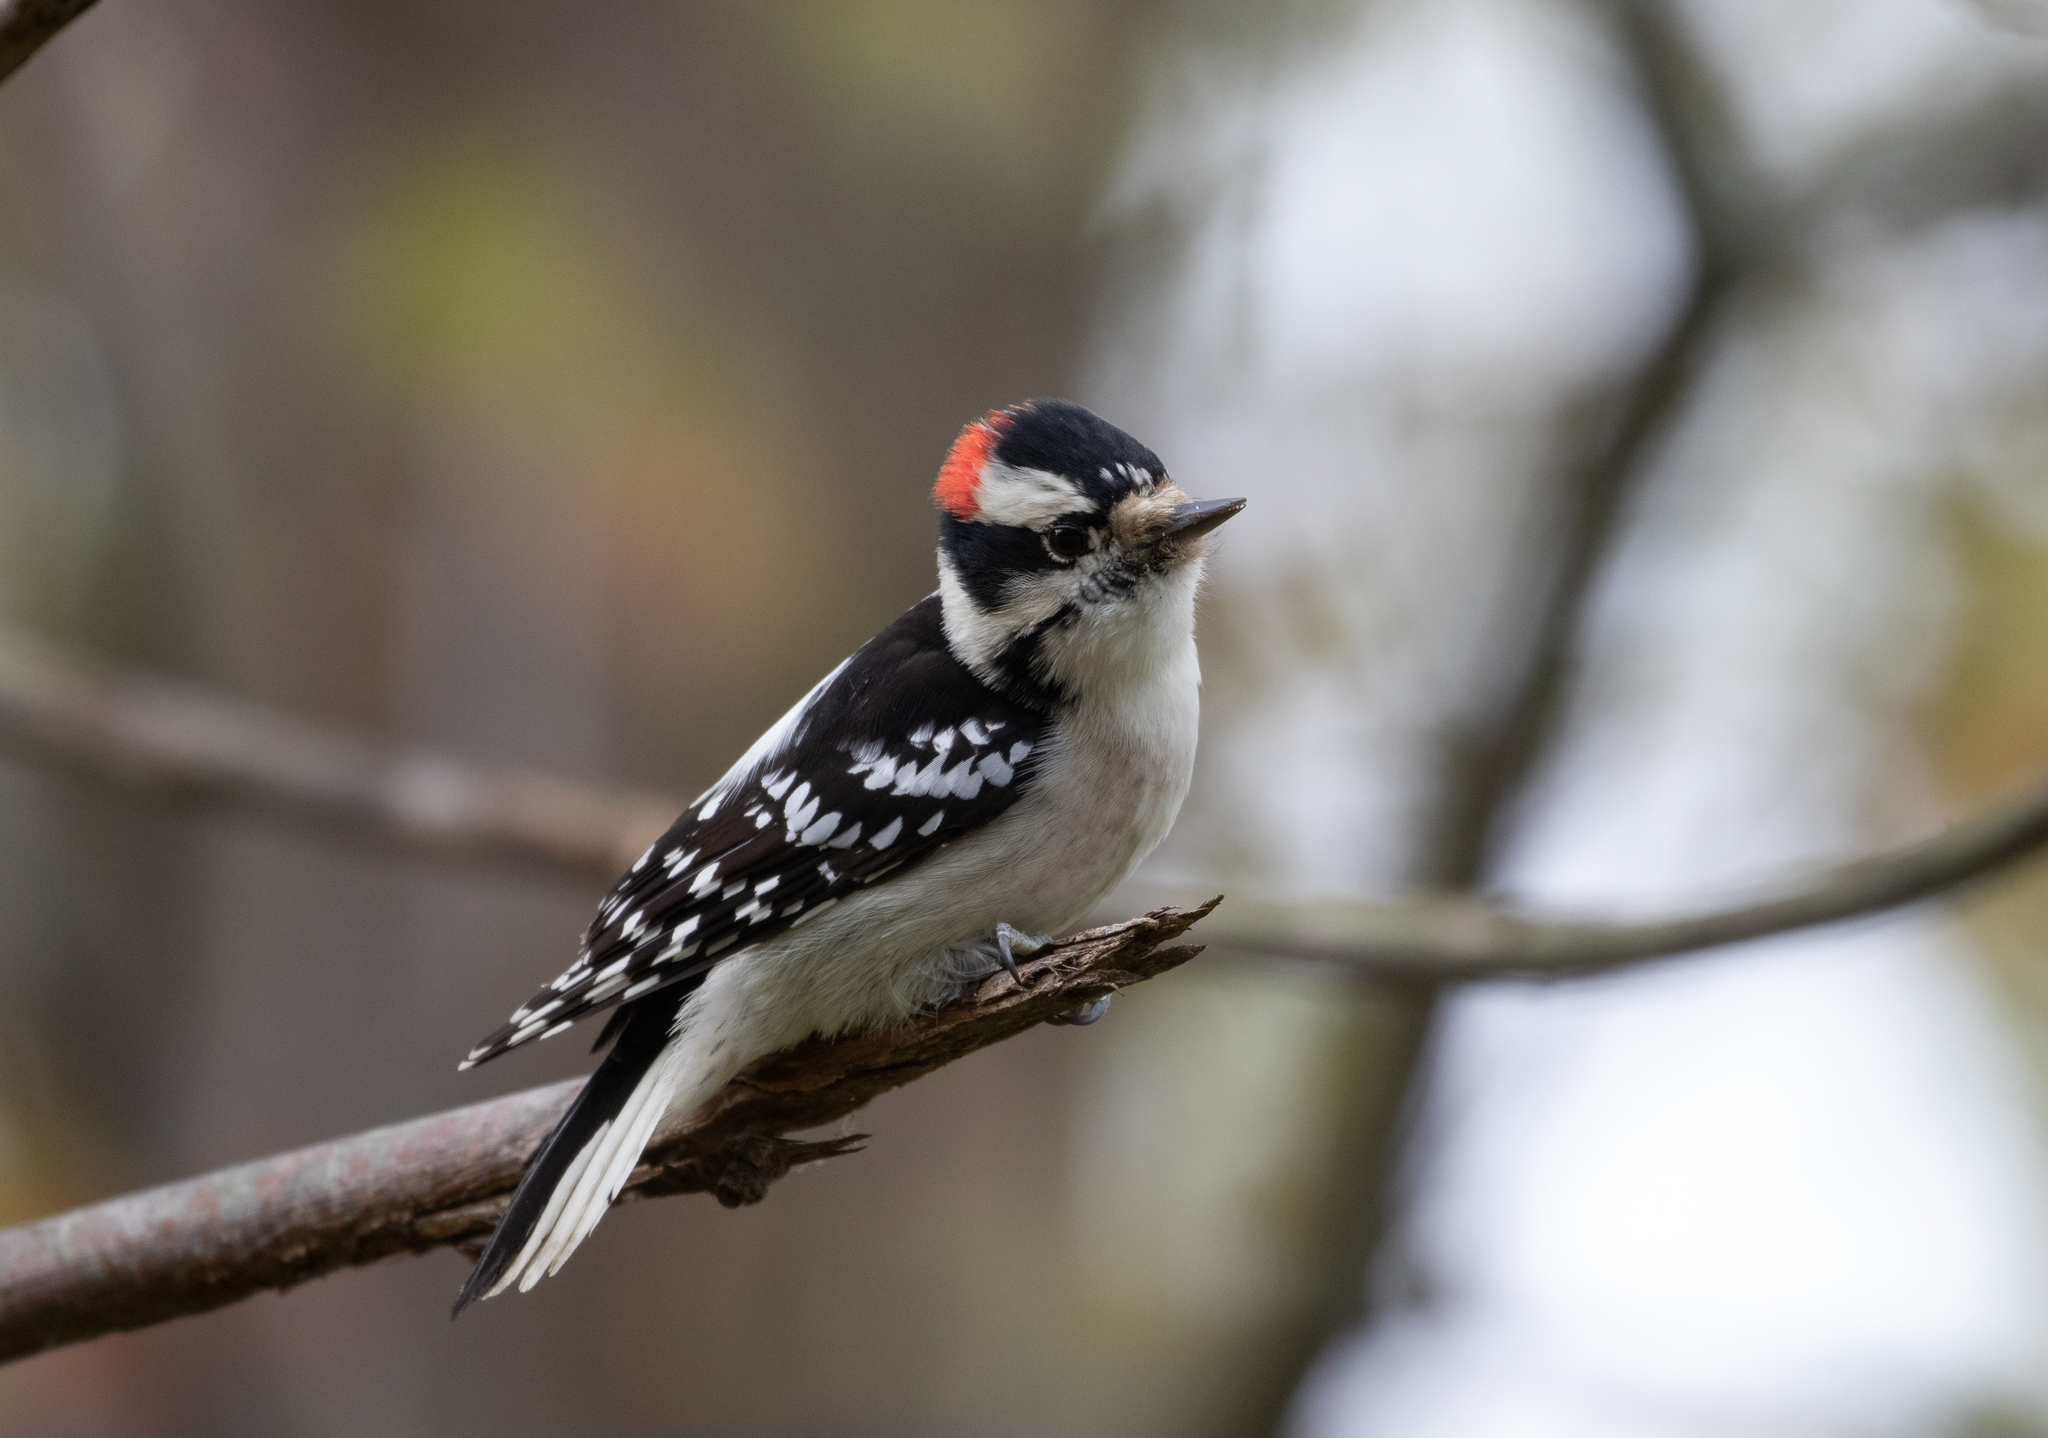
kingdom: Animalia
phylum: Chordata
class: Aves
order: Piciformes
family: Picidae
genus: Dryobates
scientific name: Dryobates pubescens
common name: Downy woodpecker
